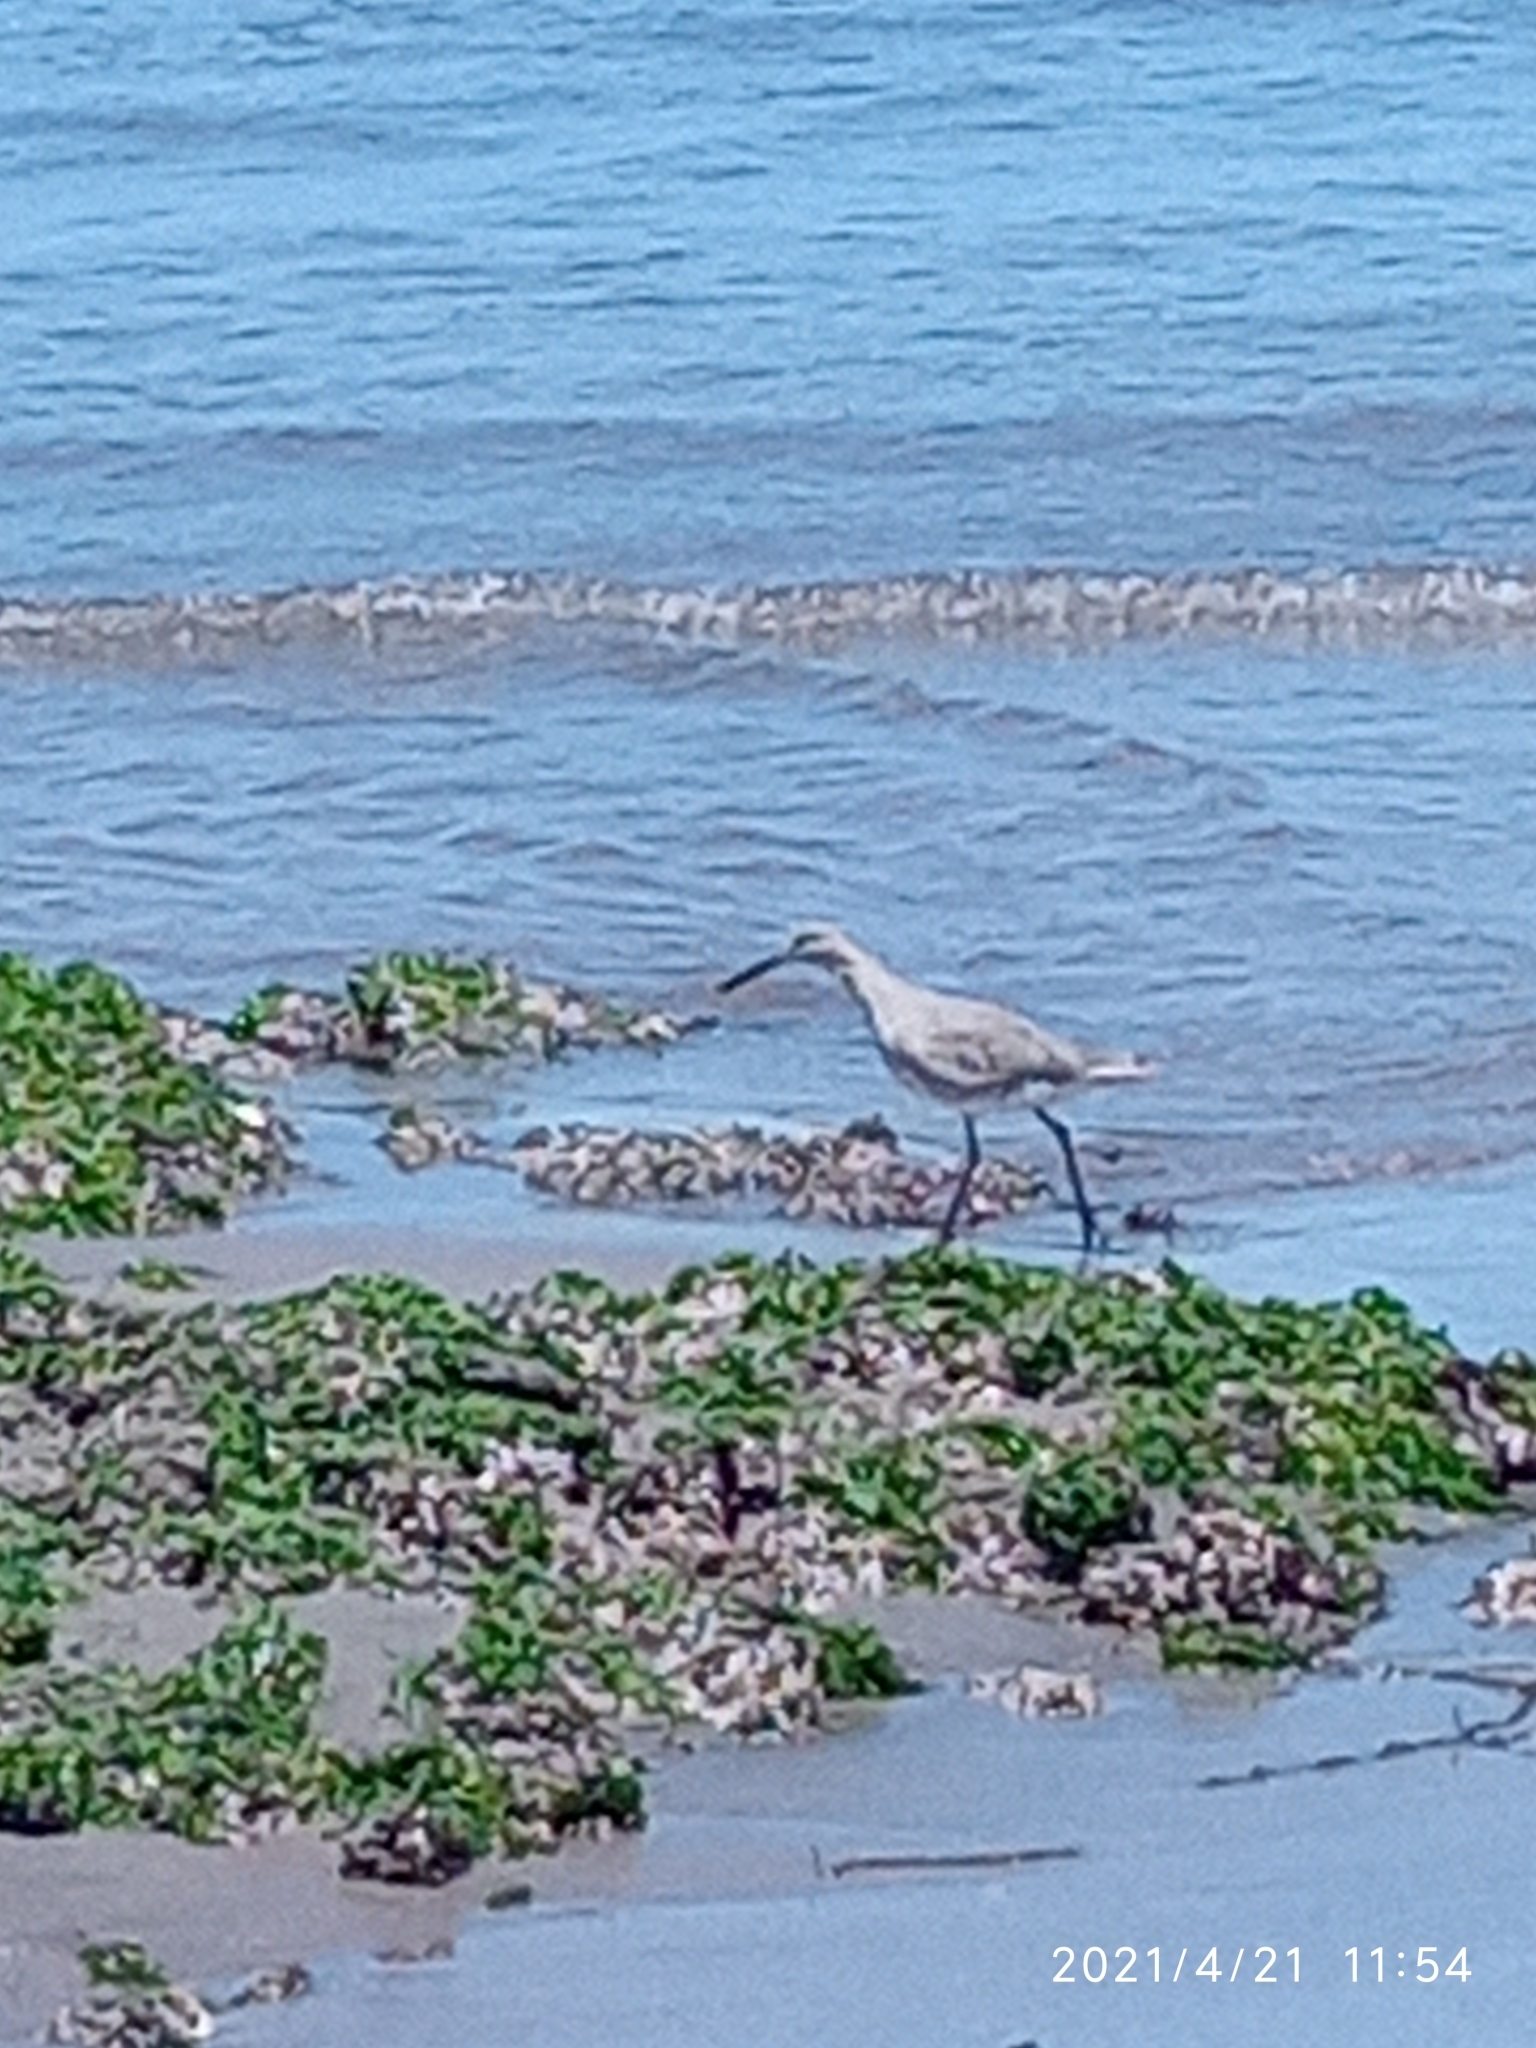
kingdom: Animalia
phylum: Chordata
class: Aves
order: Charadriiformes
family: Scolopacidae
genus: Tringa
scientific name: Tringa semipalmata
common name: Willet
